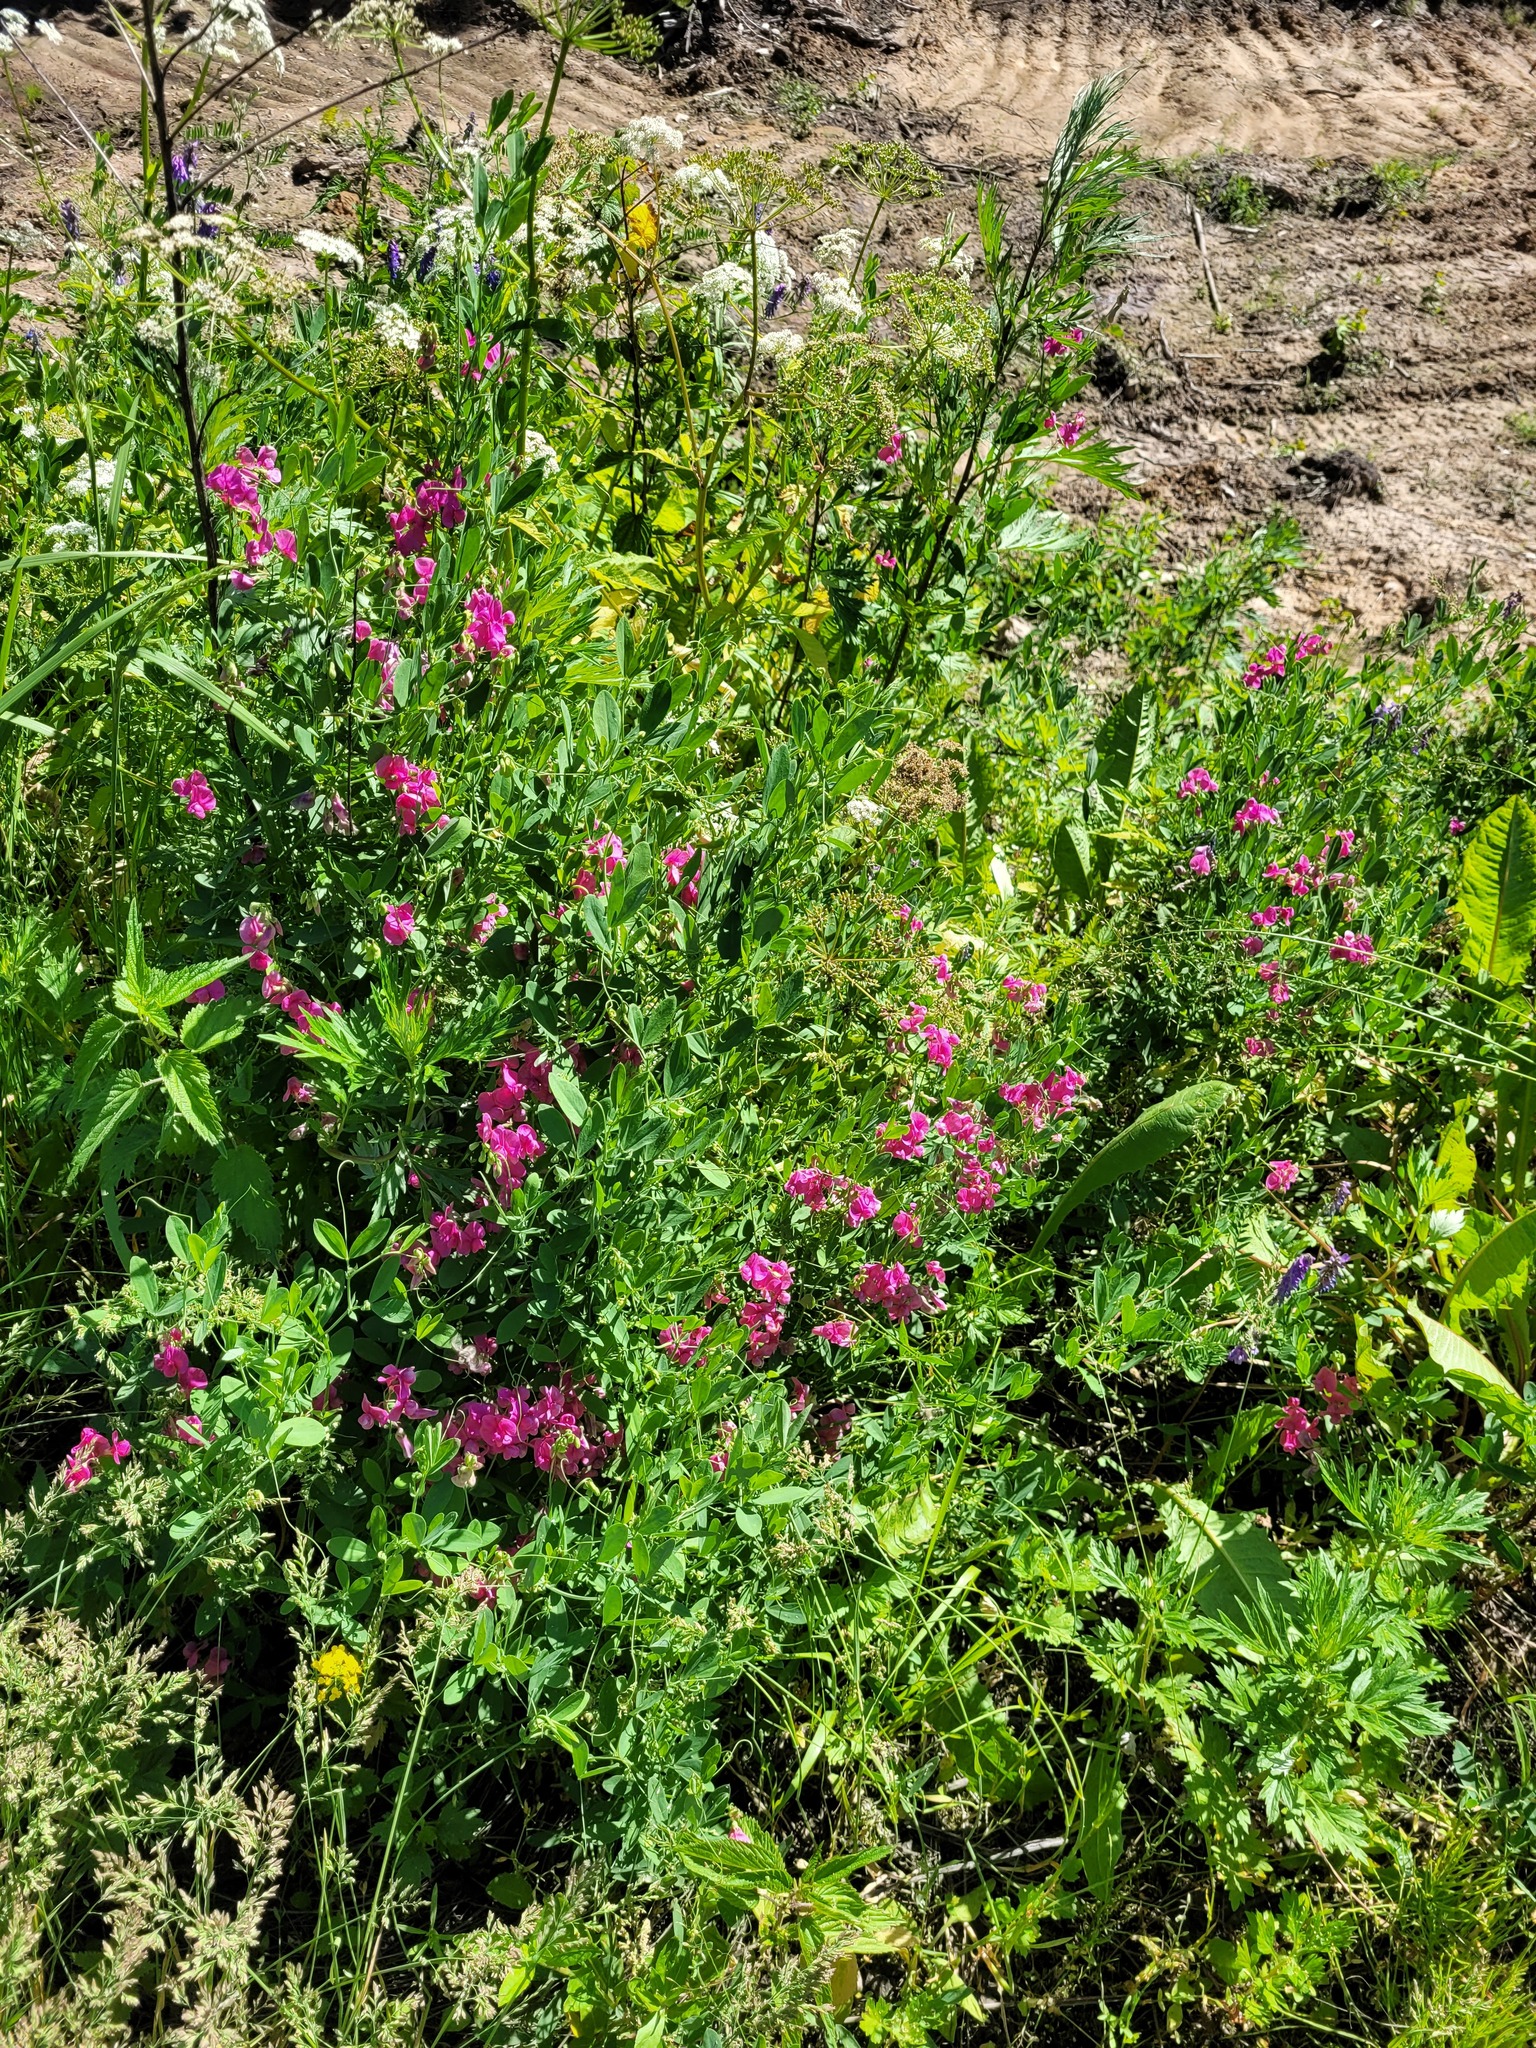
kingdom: Plantae
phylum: Tracheophyta
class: Magnoliopsida
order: Fabales
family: Fabaceae
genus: Lathyrus
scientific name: Lathyrus tuberosus
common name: Tuberous pea
